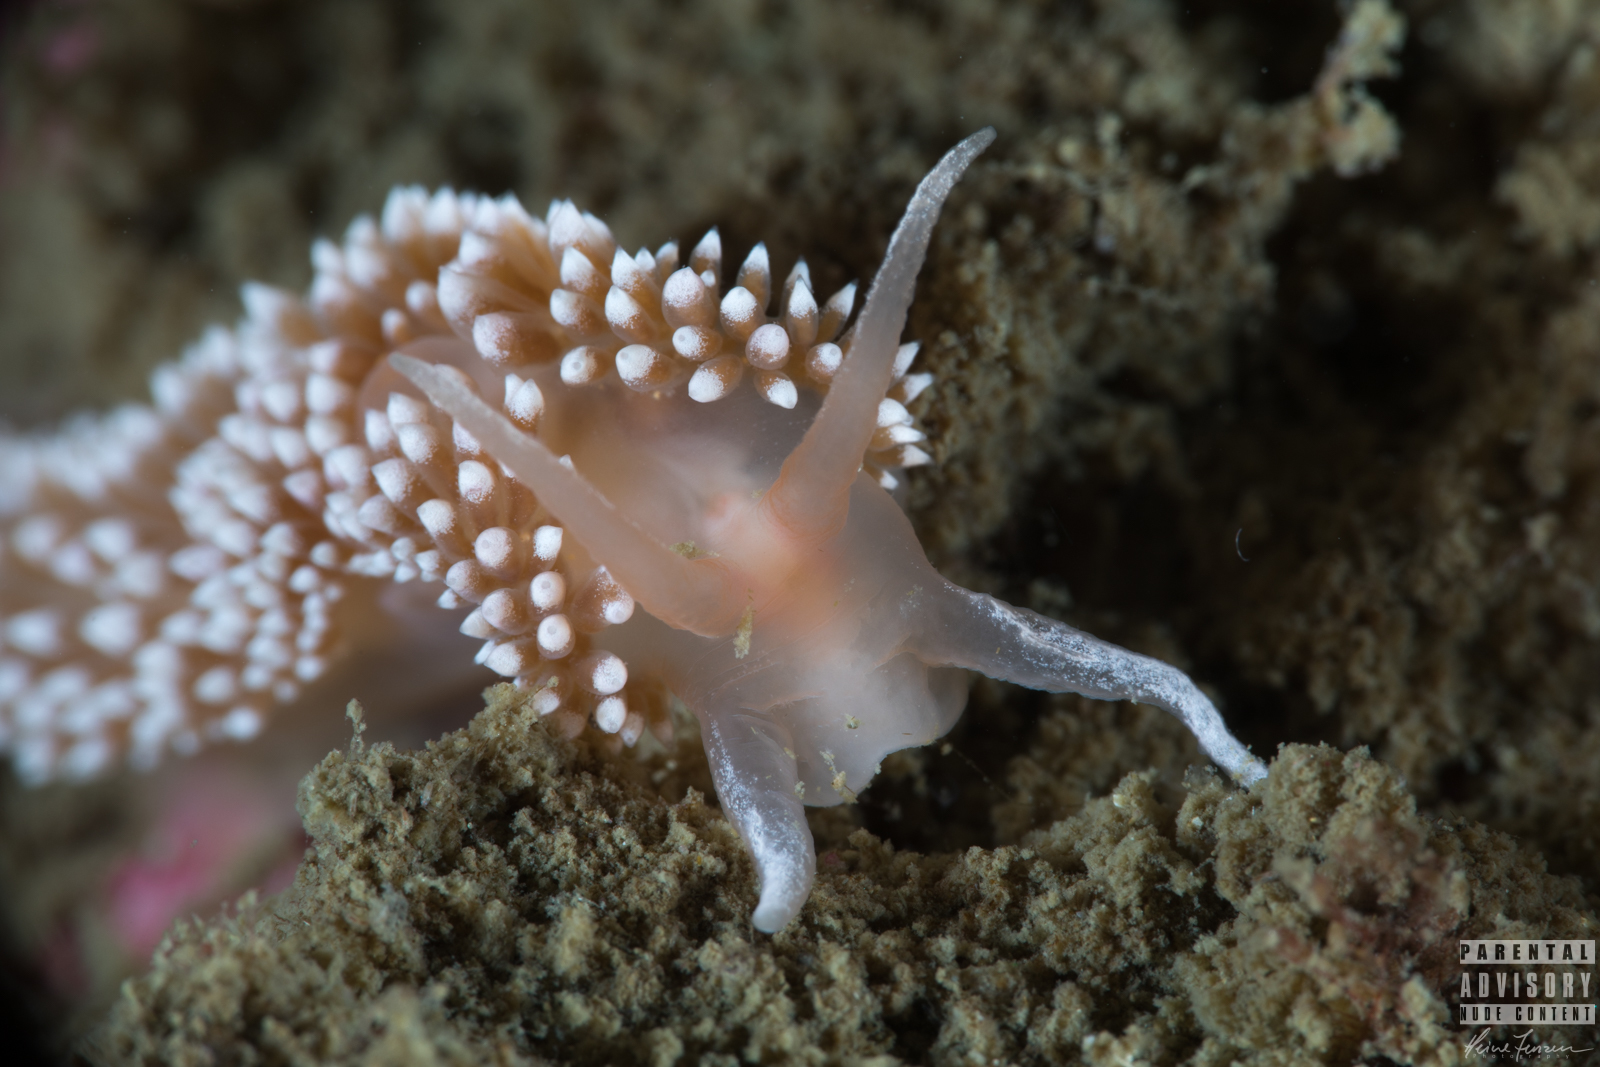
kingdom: Animalia
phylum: Mollusca
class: Gastropoda
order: Nudibranchia
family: Coryphellidae
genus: Coryphella
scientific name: Coryphella verrucosa
